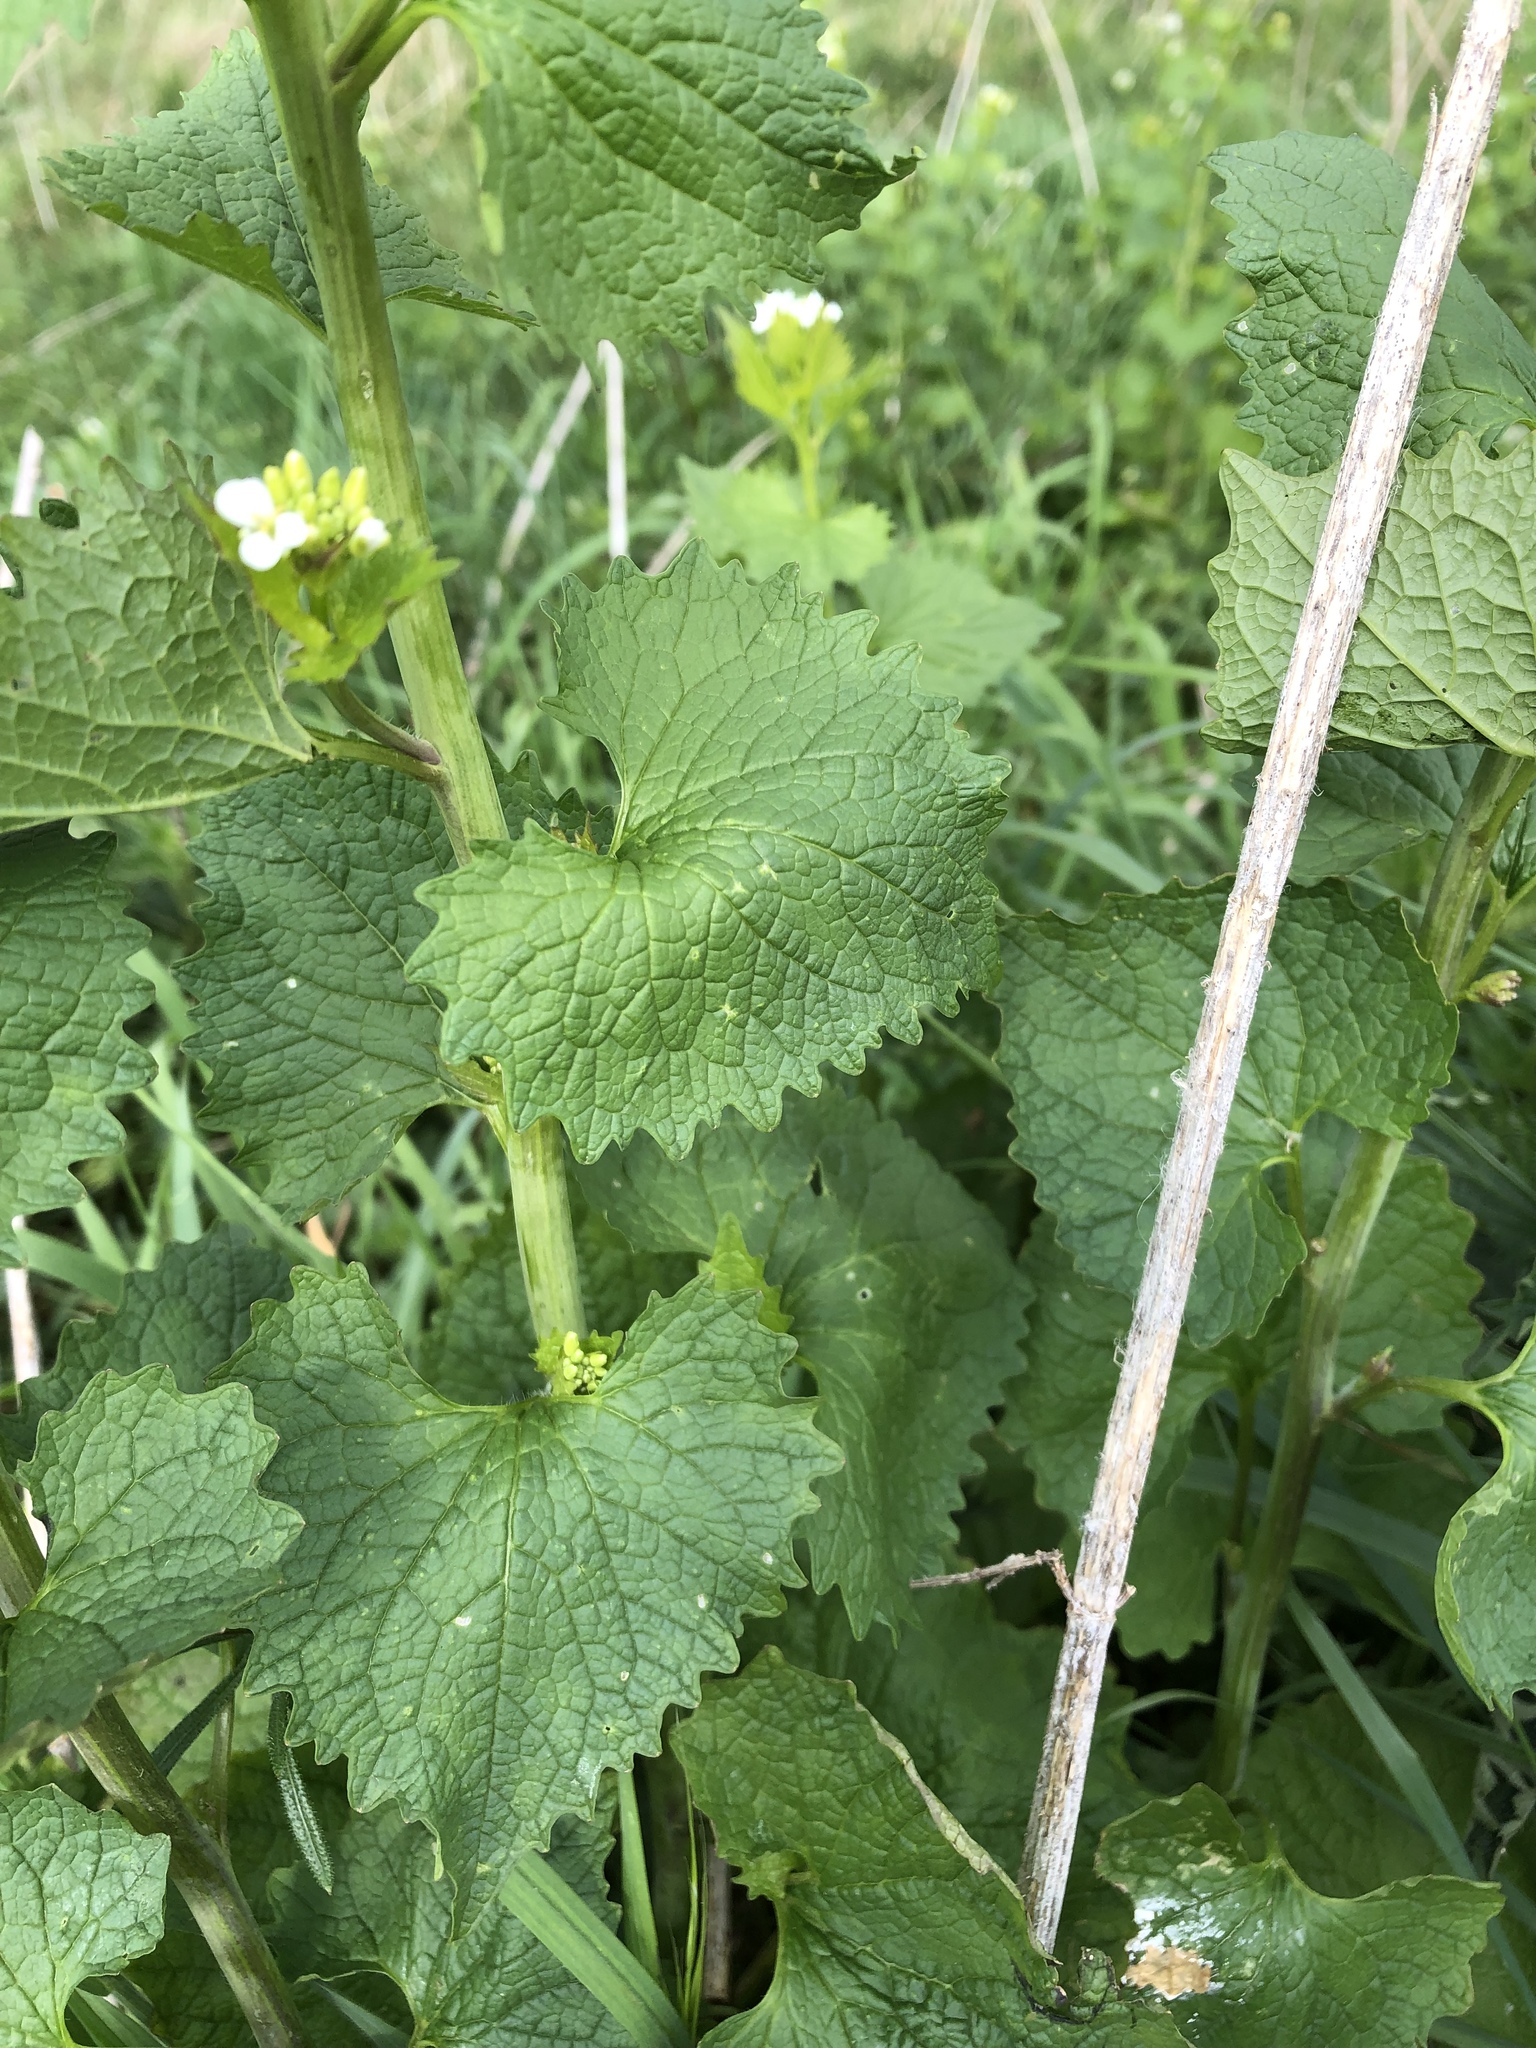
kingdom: Plantae
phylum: Tracheophyta
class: Magnoliopsida
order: Brassicales
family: Brassicaceae
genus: Alliaria
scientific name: Alliaria petiolata
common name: Garlic mustard
